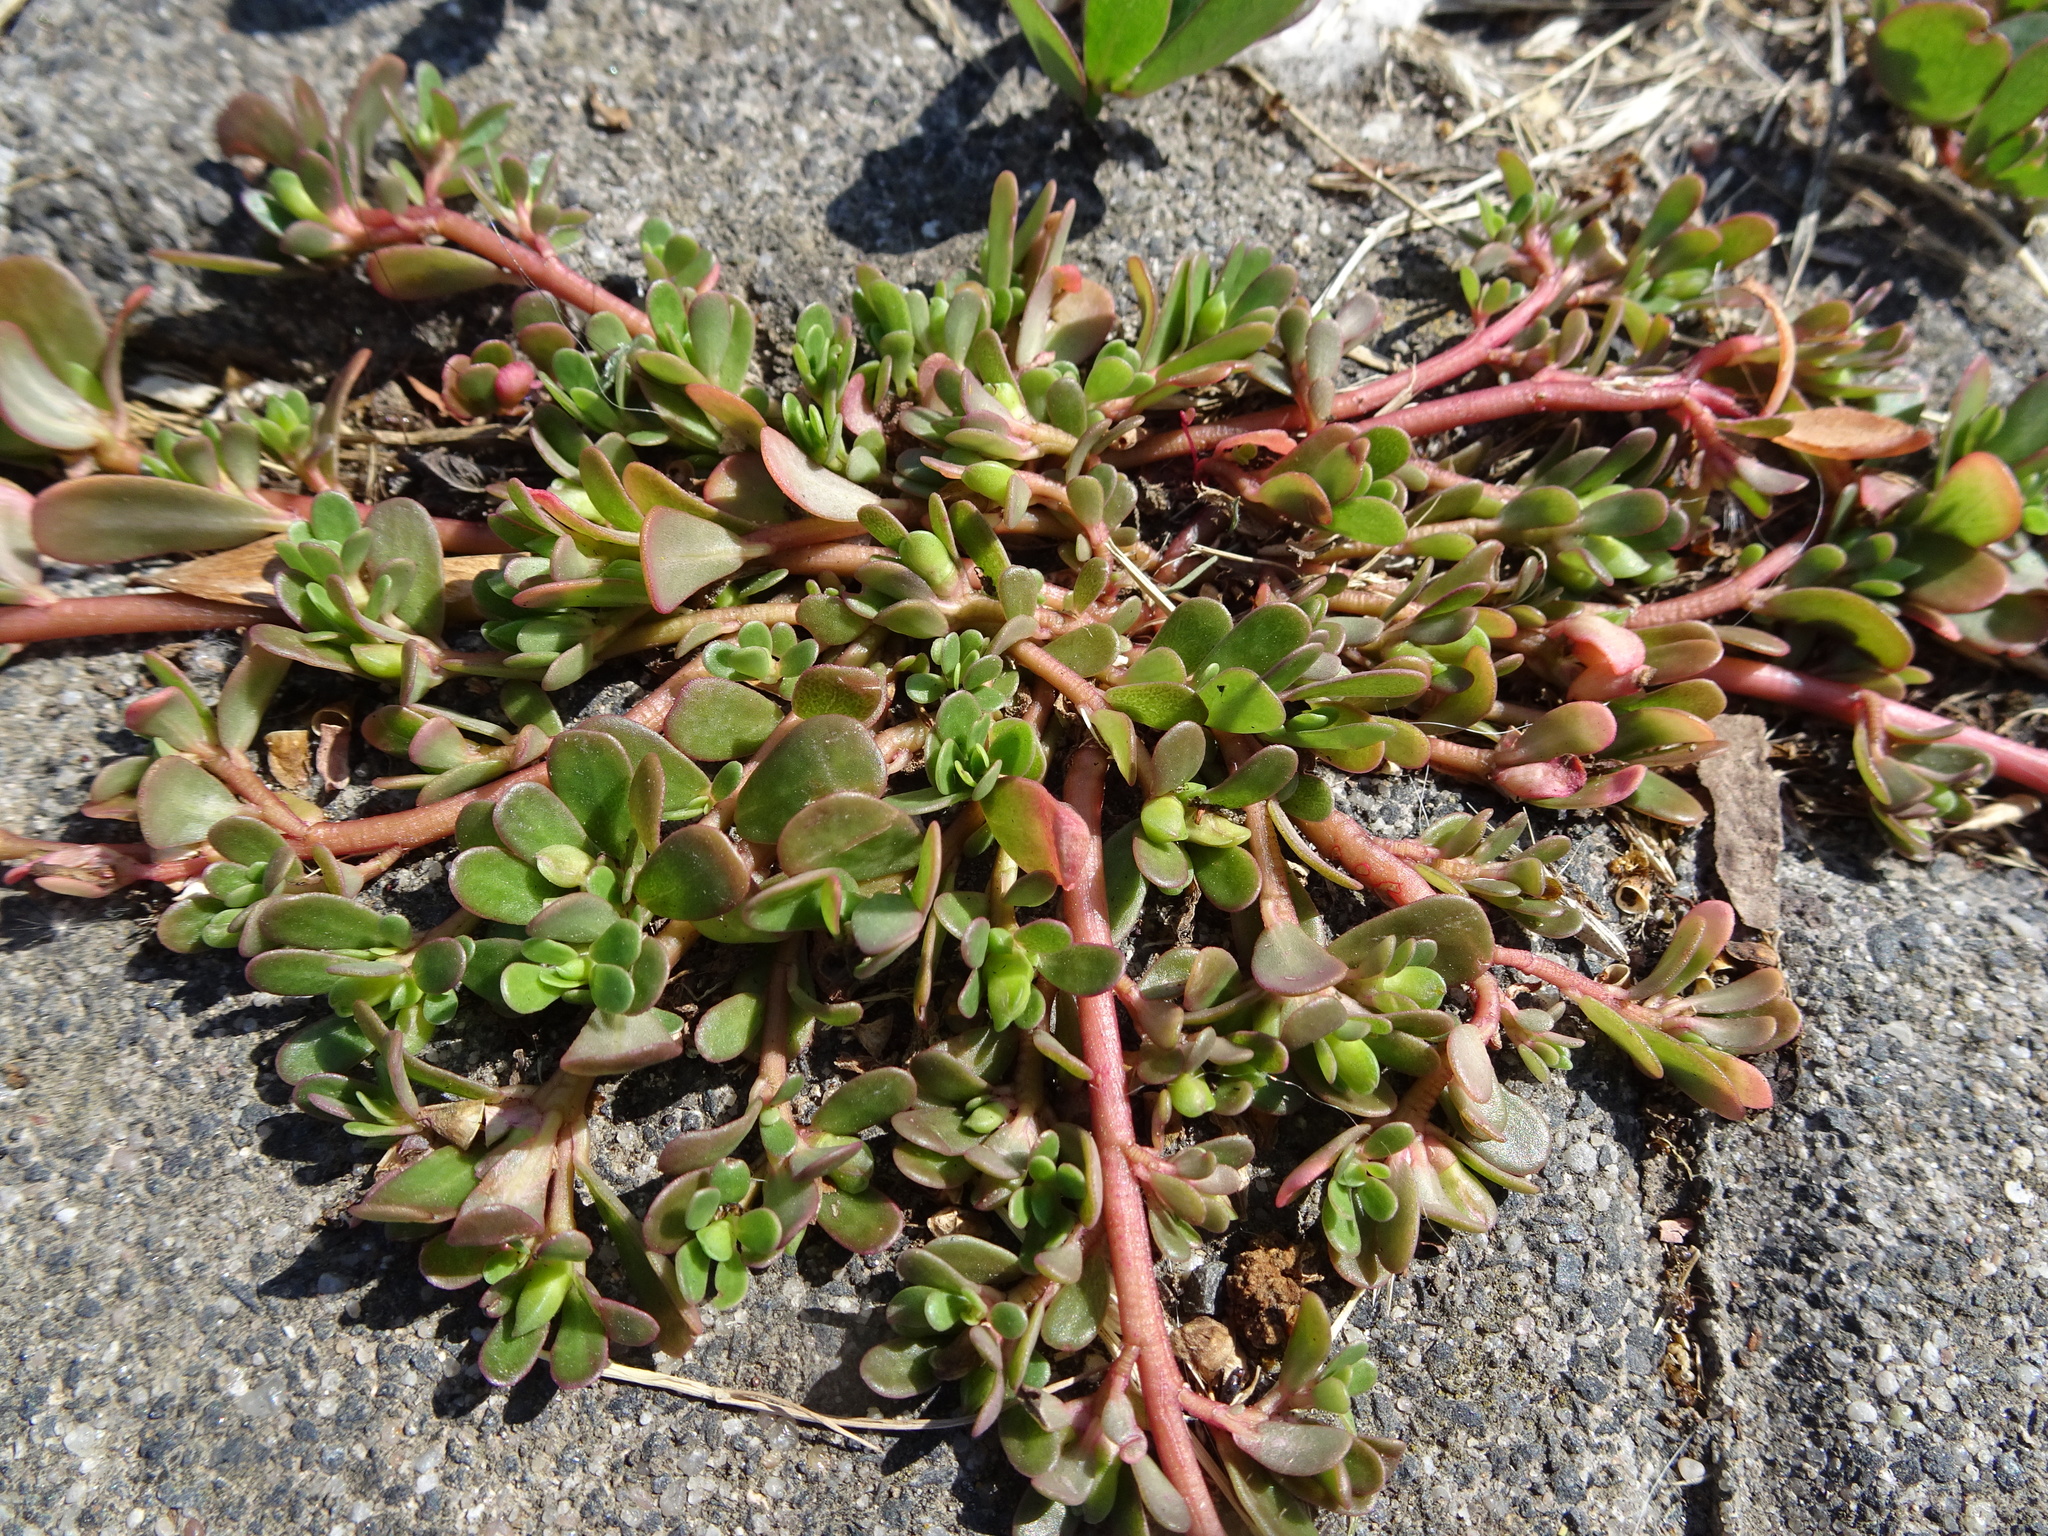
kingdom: Plantae
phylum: Tracheophyta
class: Magnoliopsida
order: Caryophyllales
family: Portulacaceae
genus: Portulaca
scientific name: Portulaca oleracea
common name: Common purslane
